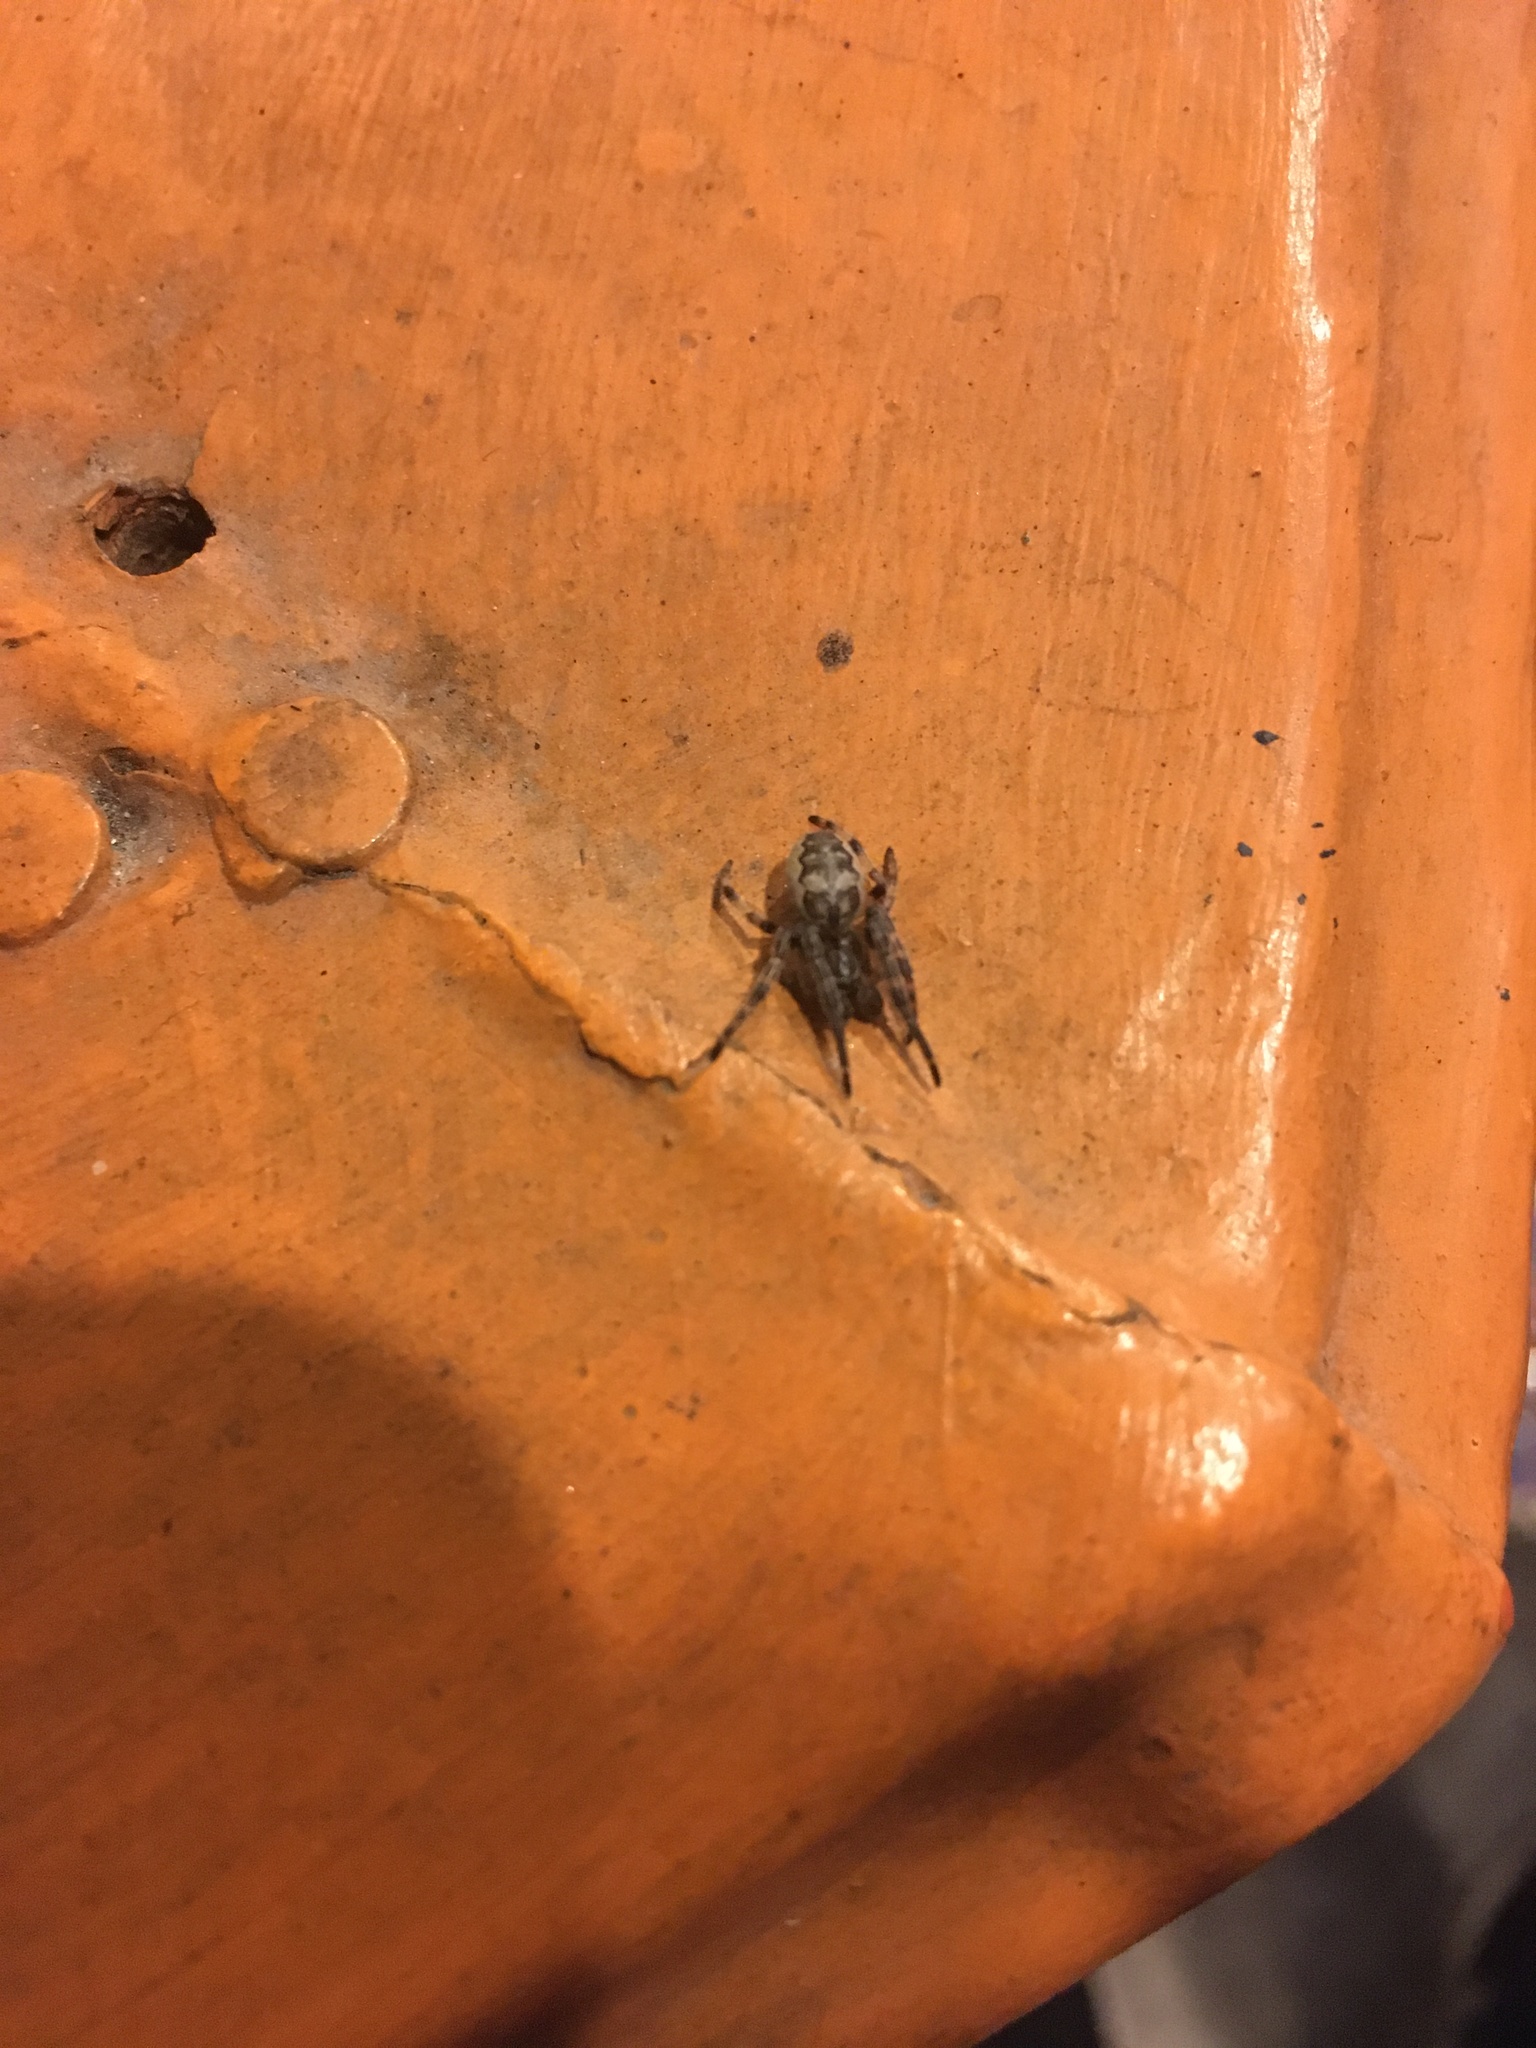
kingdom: Animalia
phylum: Arthropoda
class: Arachnida
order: Araneae
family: Araneidae
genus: Larinioides
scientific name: Larinioides cornutus
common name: Furrow orbweaver
